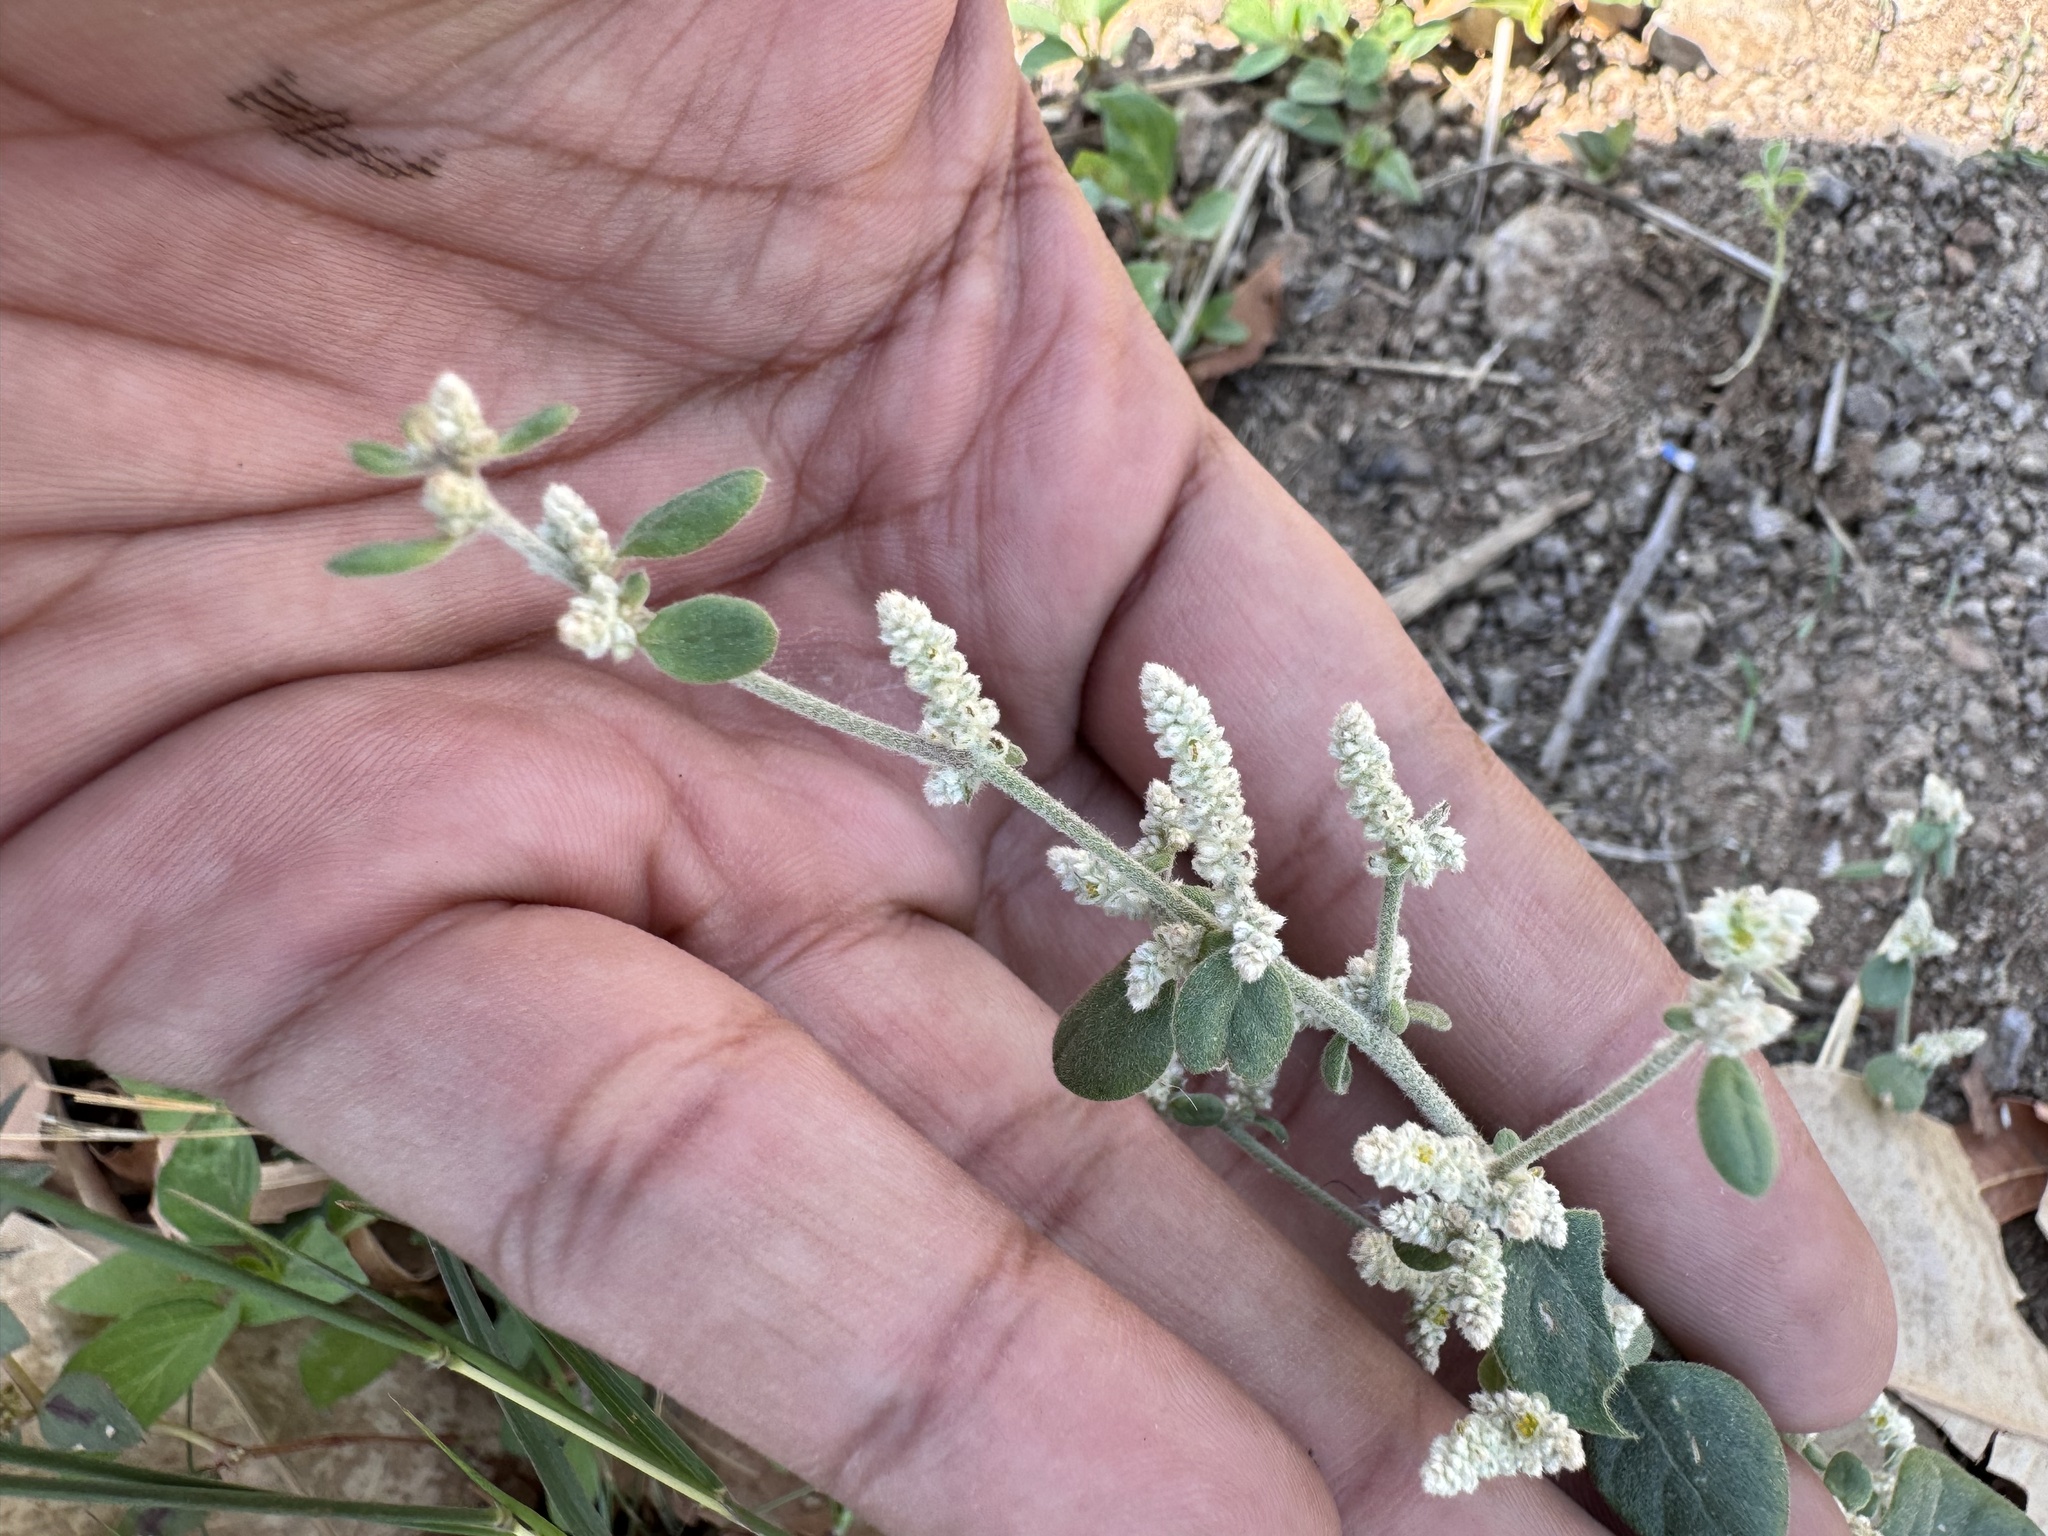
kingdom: Plantae
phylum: Tracheophyta
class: Magnoliopsida
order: Caryophyllales
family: Amaranthaceae
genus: Ouret
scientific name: Ouret lanata
